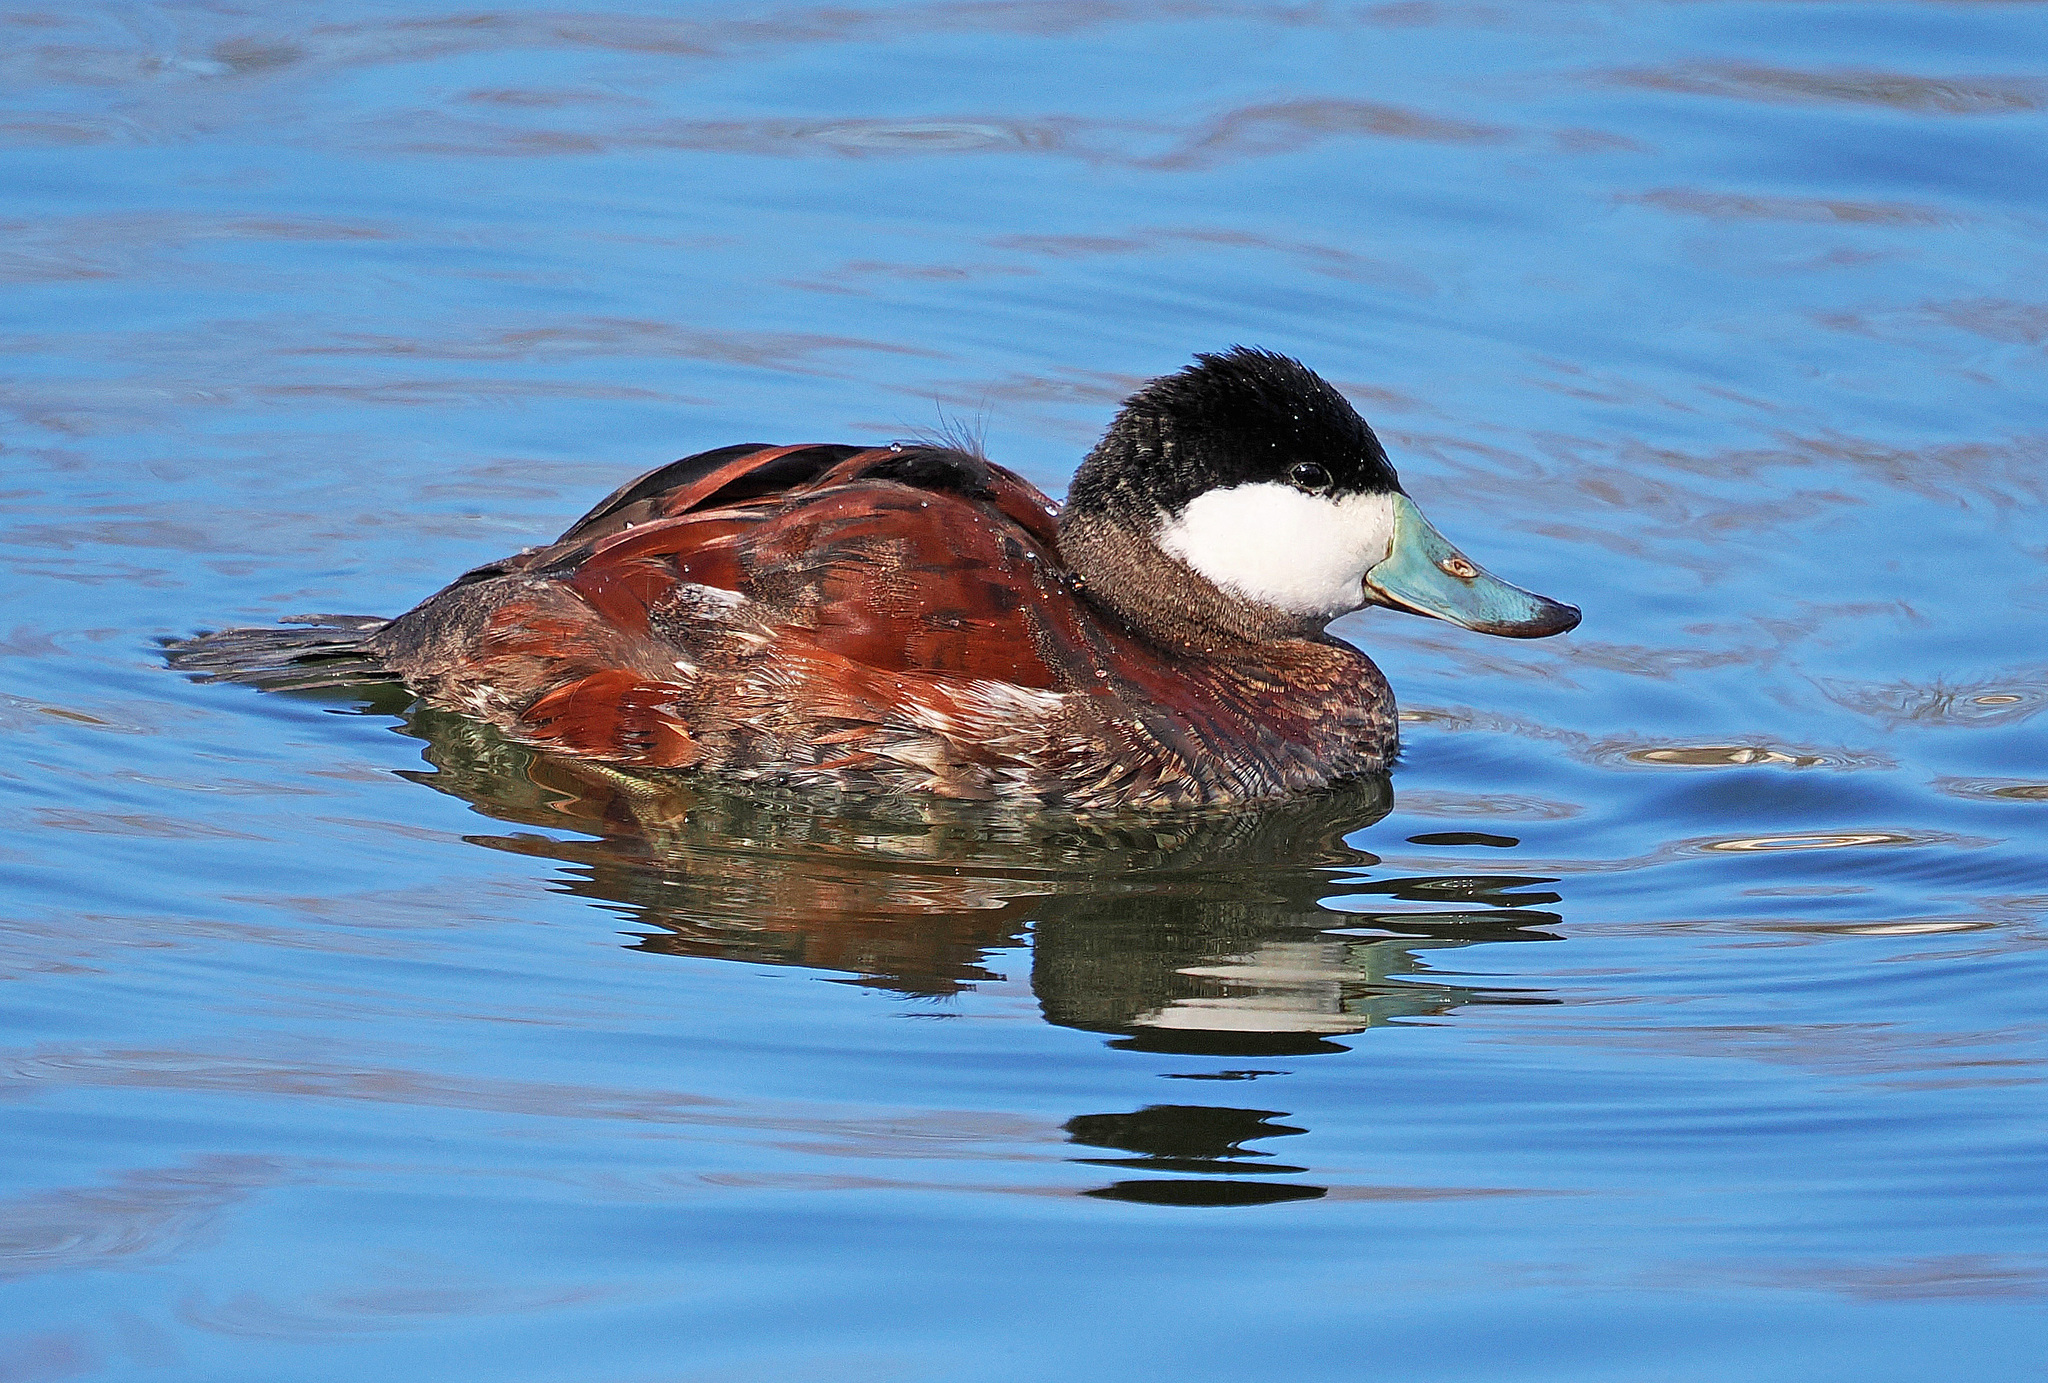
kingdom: Animalia
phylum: Chordata
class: Aves
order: Anseriformes
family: Anatidae
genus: Oxyura
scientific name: Oxyura jamaicensis
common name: Ruddy duck
